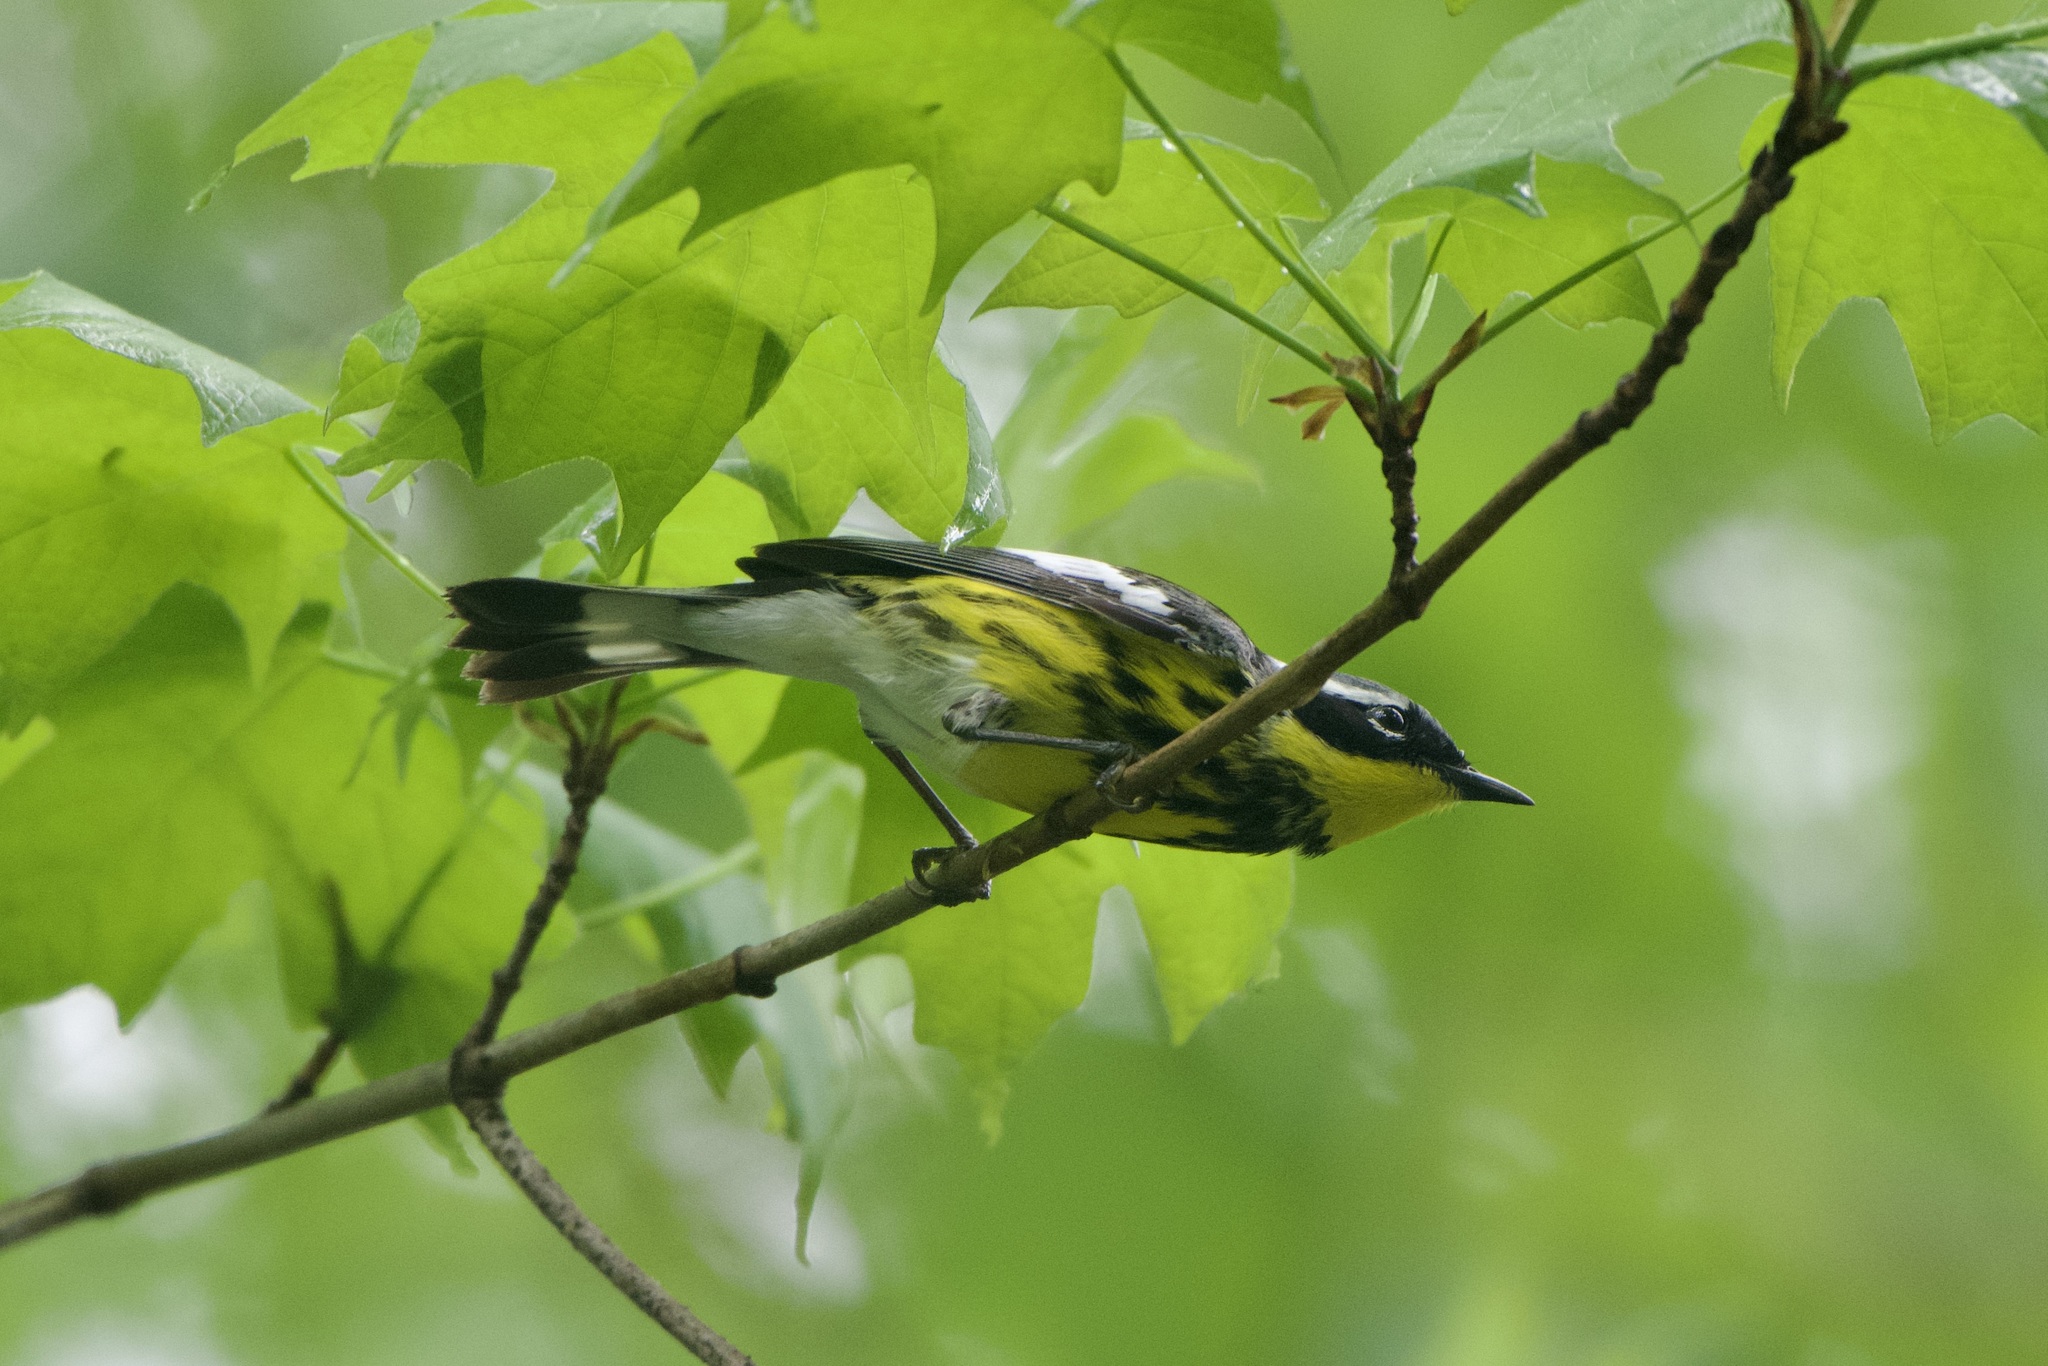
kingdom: Animalia
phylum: Chordata
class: Aves
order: Passeriformes
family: Parulidae
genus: Setophaga
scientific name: Setophaga magnolia
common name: Magnolia warbler
